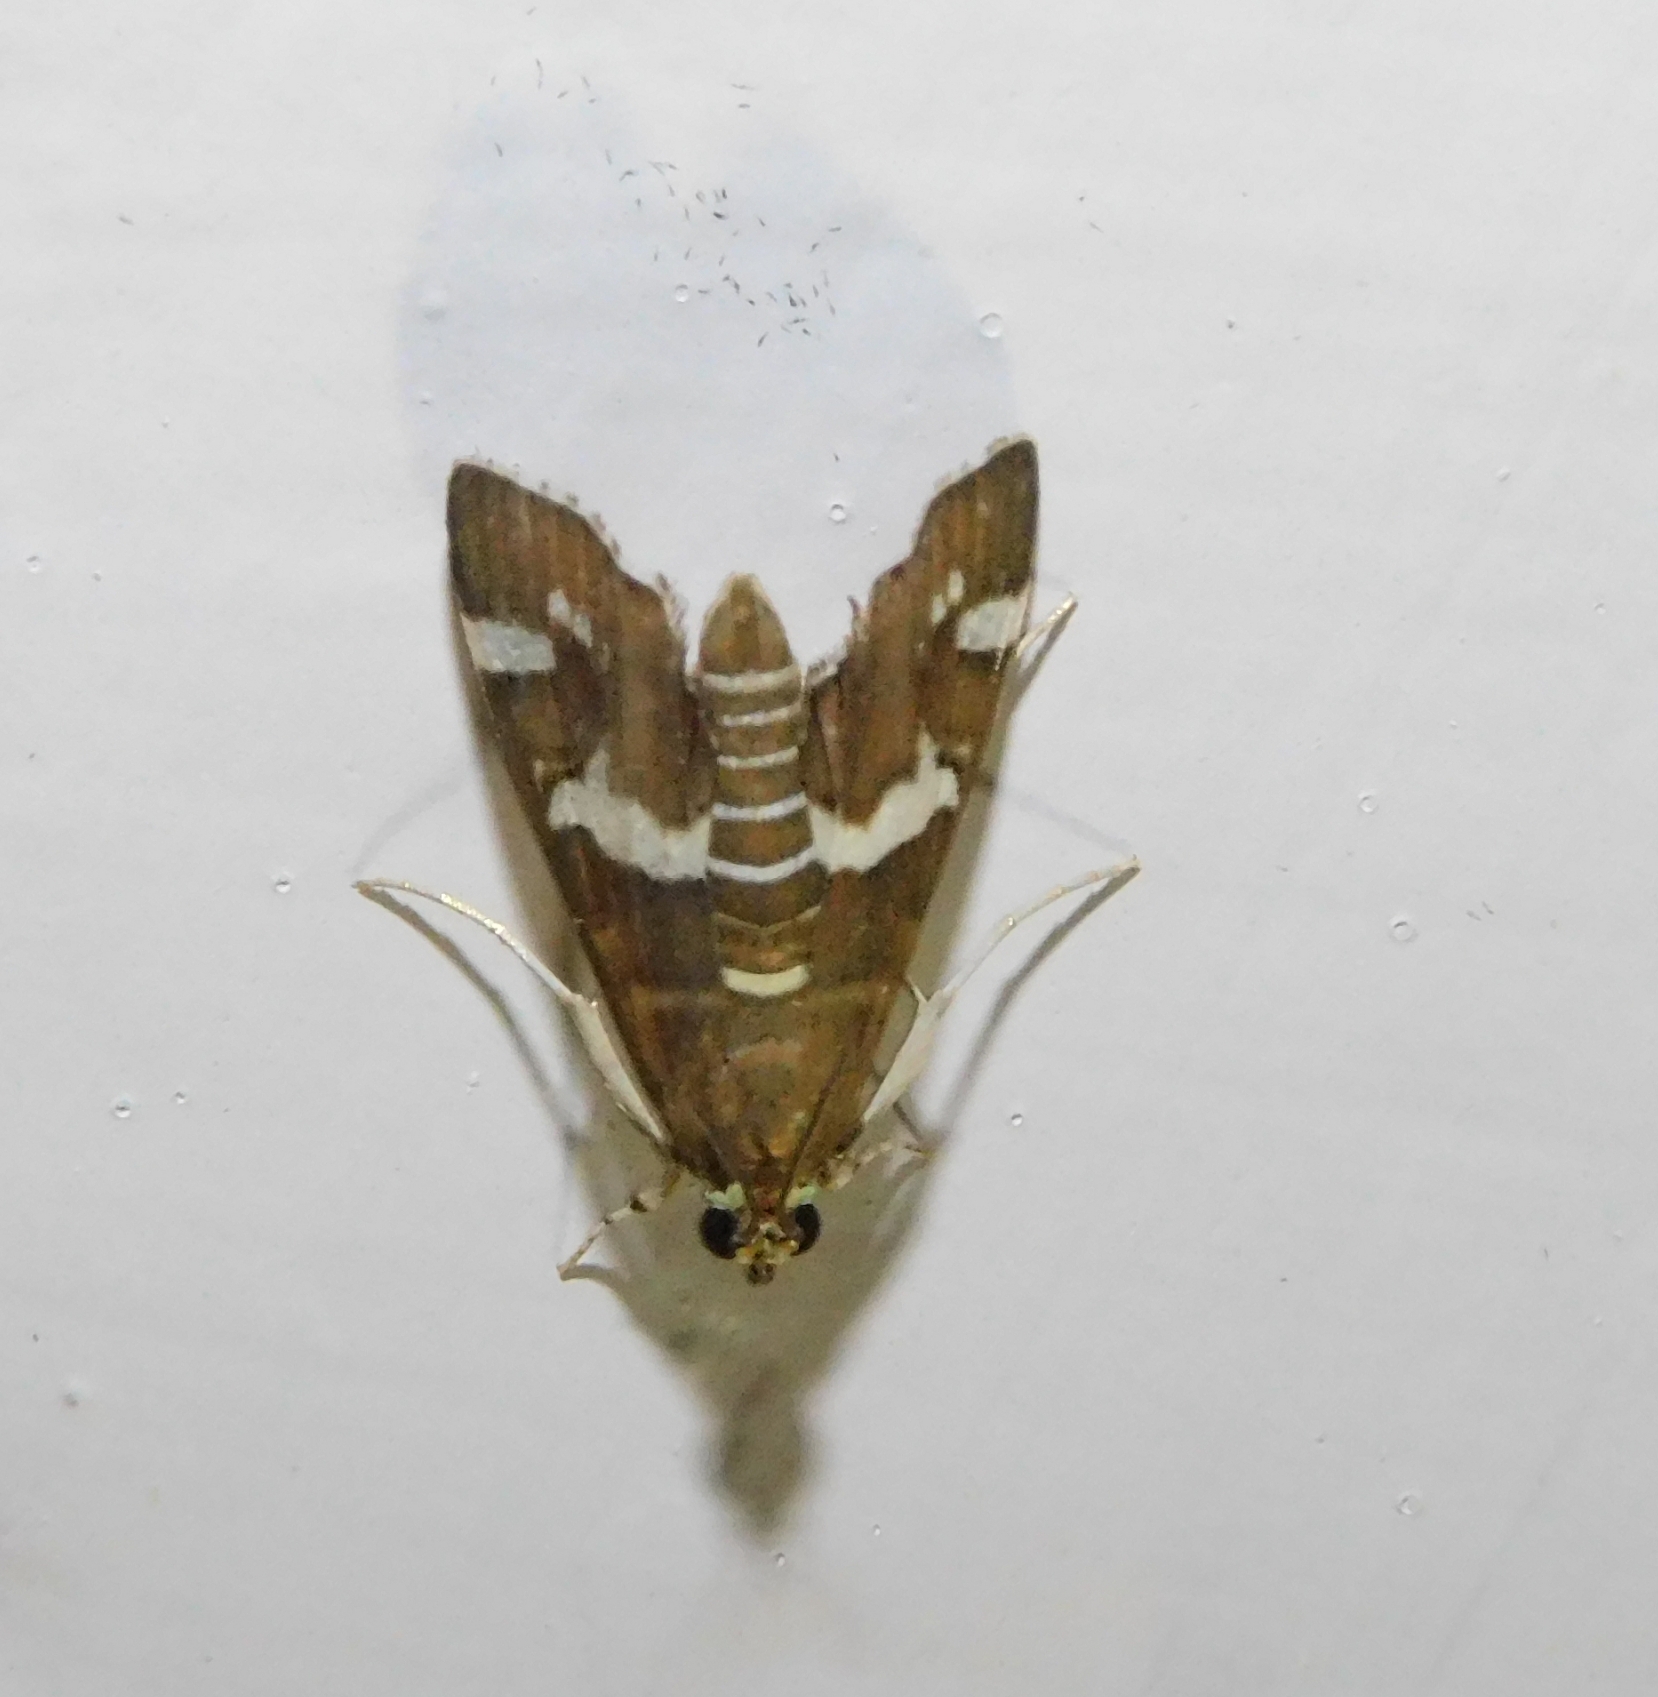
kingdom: Animalia
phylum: Arthropoda
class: Insecta
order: Lepidoptera
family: Crambidae
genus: Spoladea
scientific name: Spoladea recurvalis
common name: Beet webworm moth
